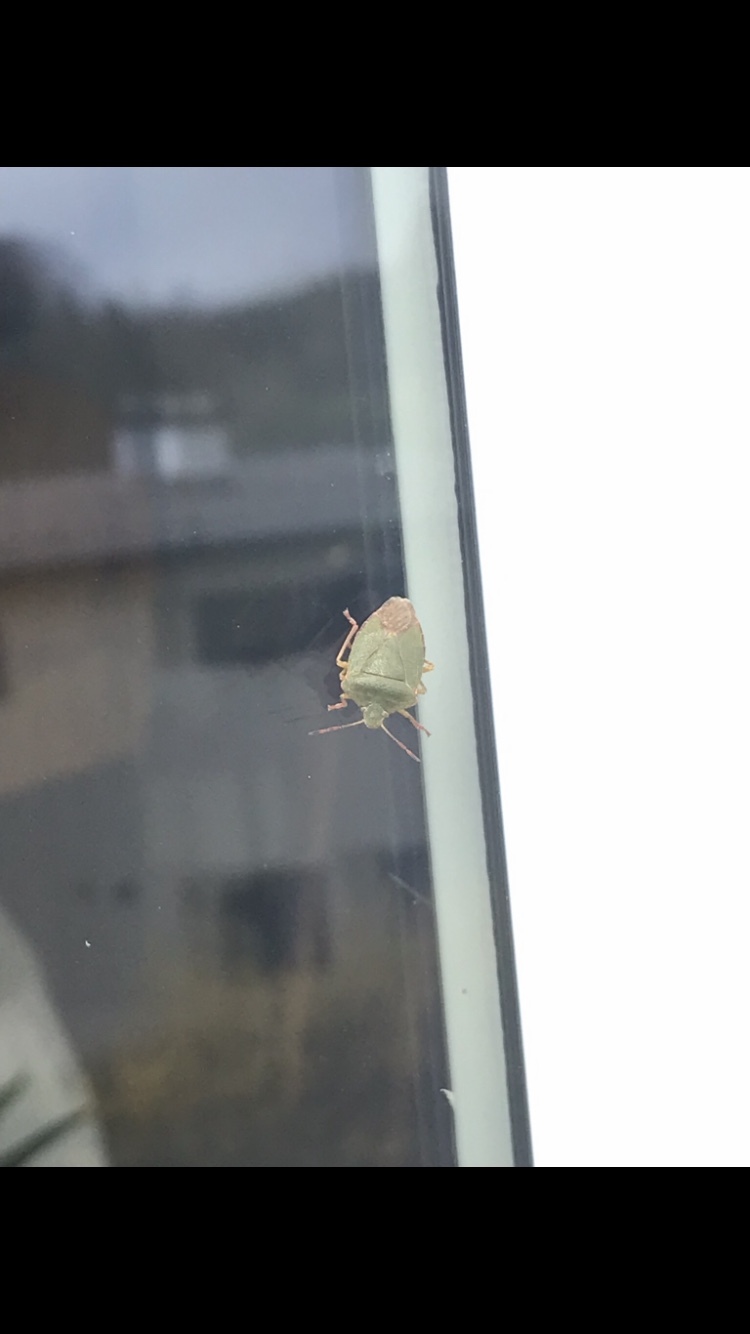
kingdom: Animalia
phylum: Arthropoda
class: Insecta
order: Hemiptera
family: Pentatomidae
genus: Palomena
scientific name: Palomena prasina
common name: Green shieldbug
